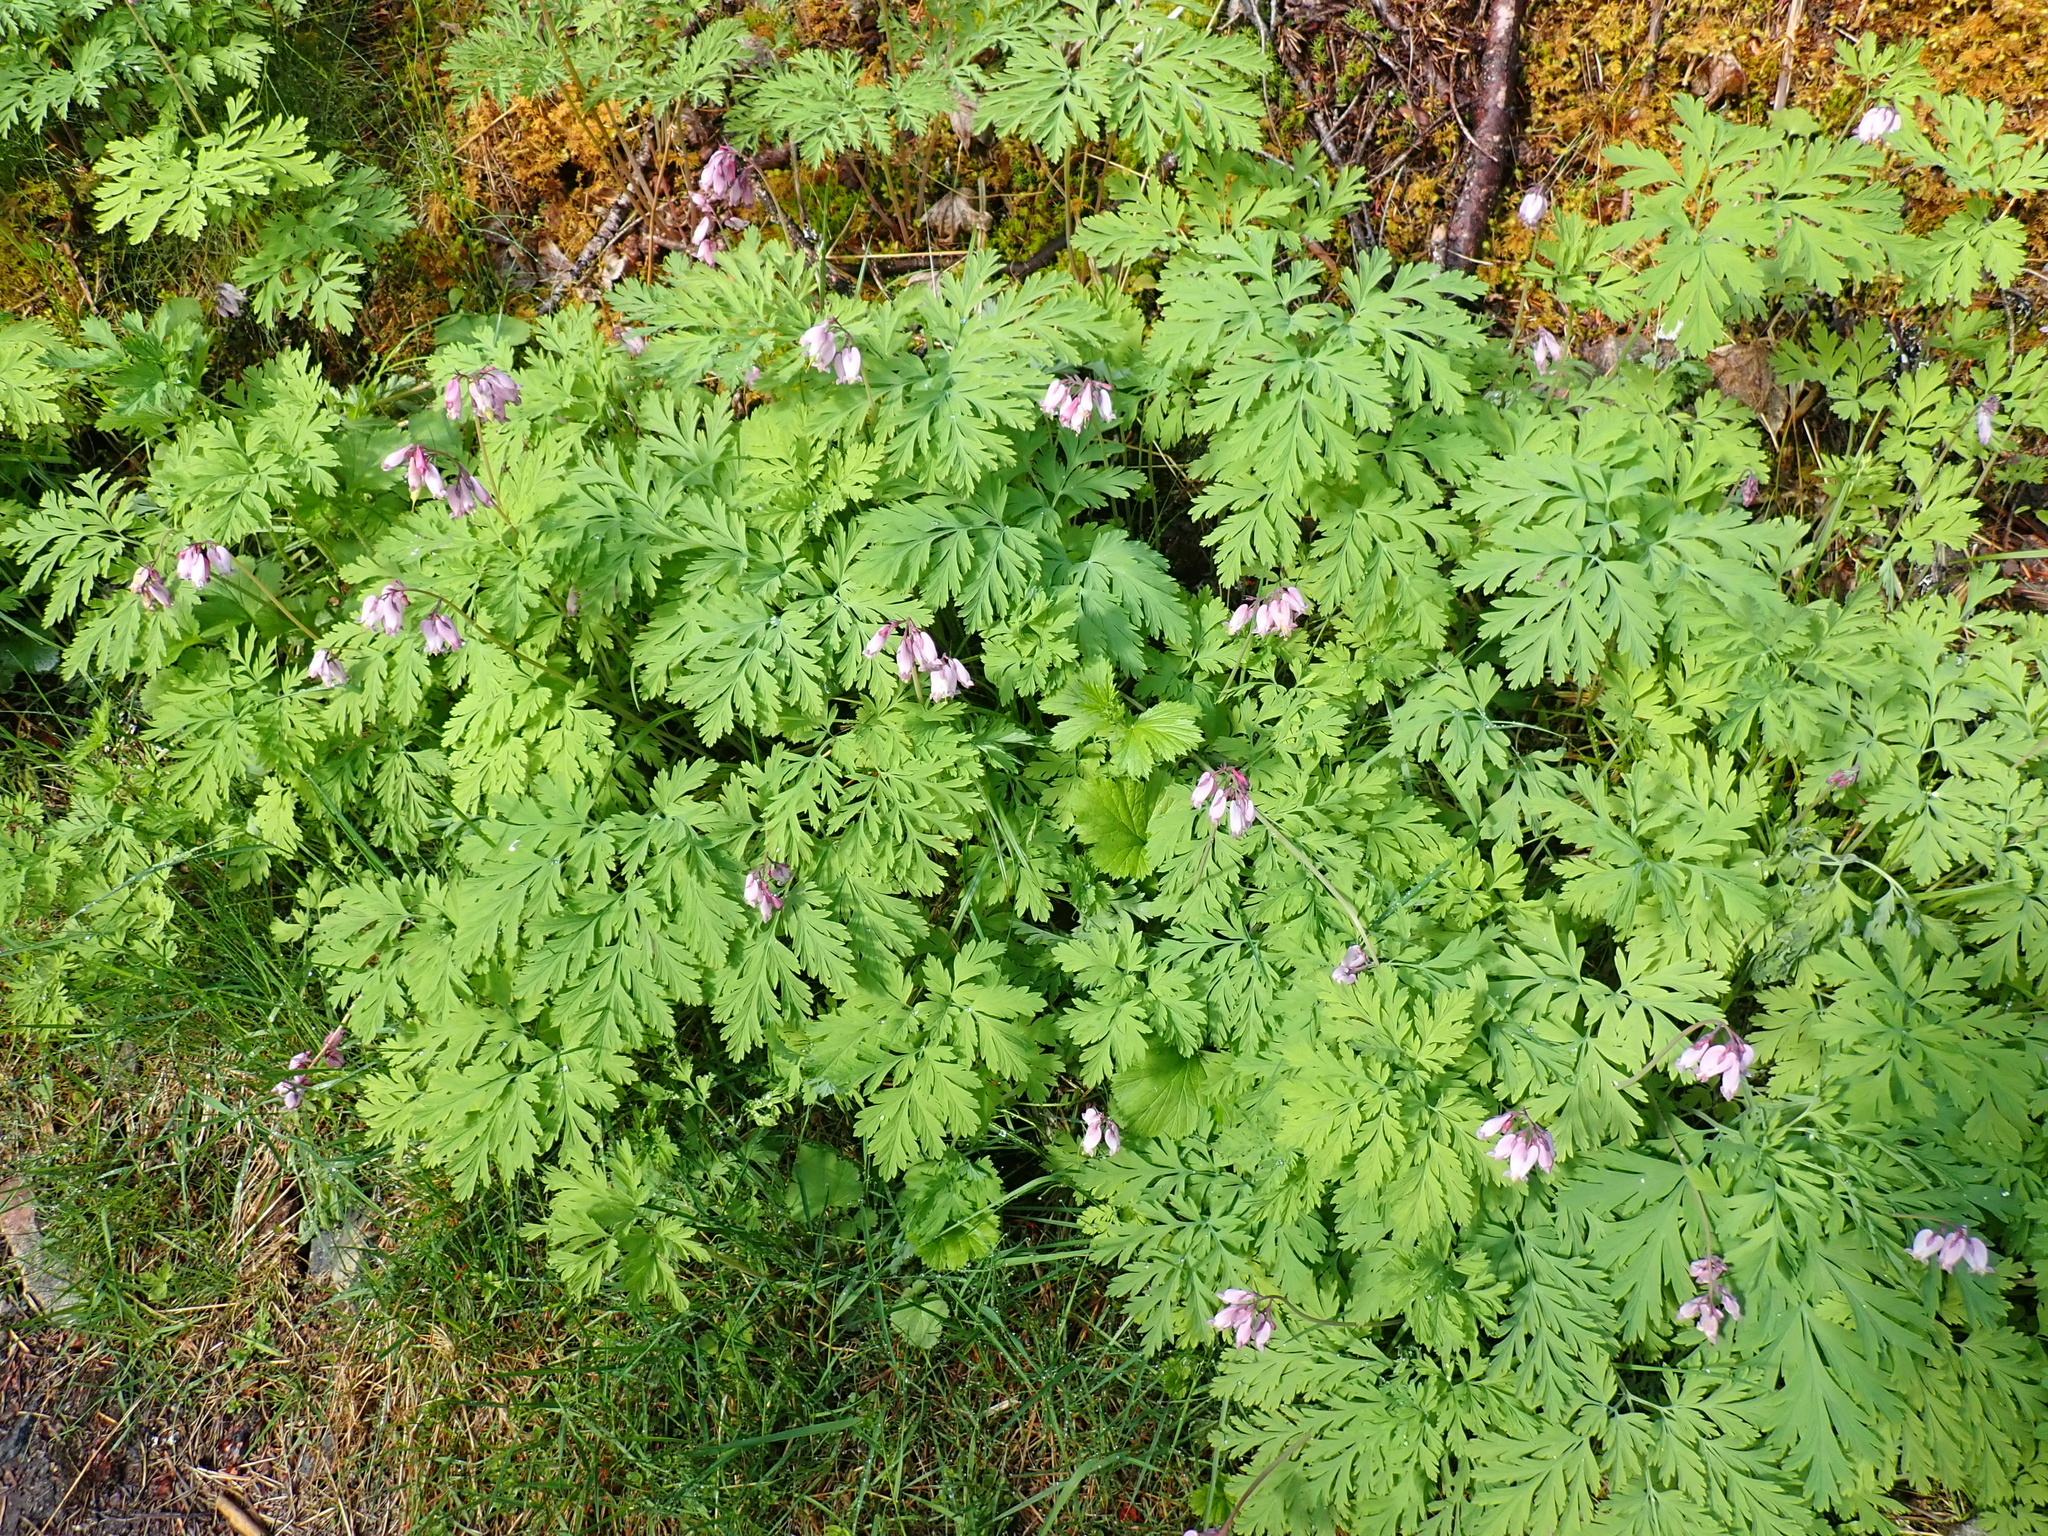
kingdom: Plantae
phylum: Tracheophyta
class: Magnoliopsida
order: Ranunculales
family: Papaveraceae
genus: Dicentra
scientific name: Dicentra formosa
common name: Bleeding-heart
